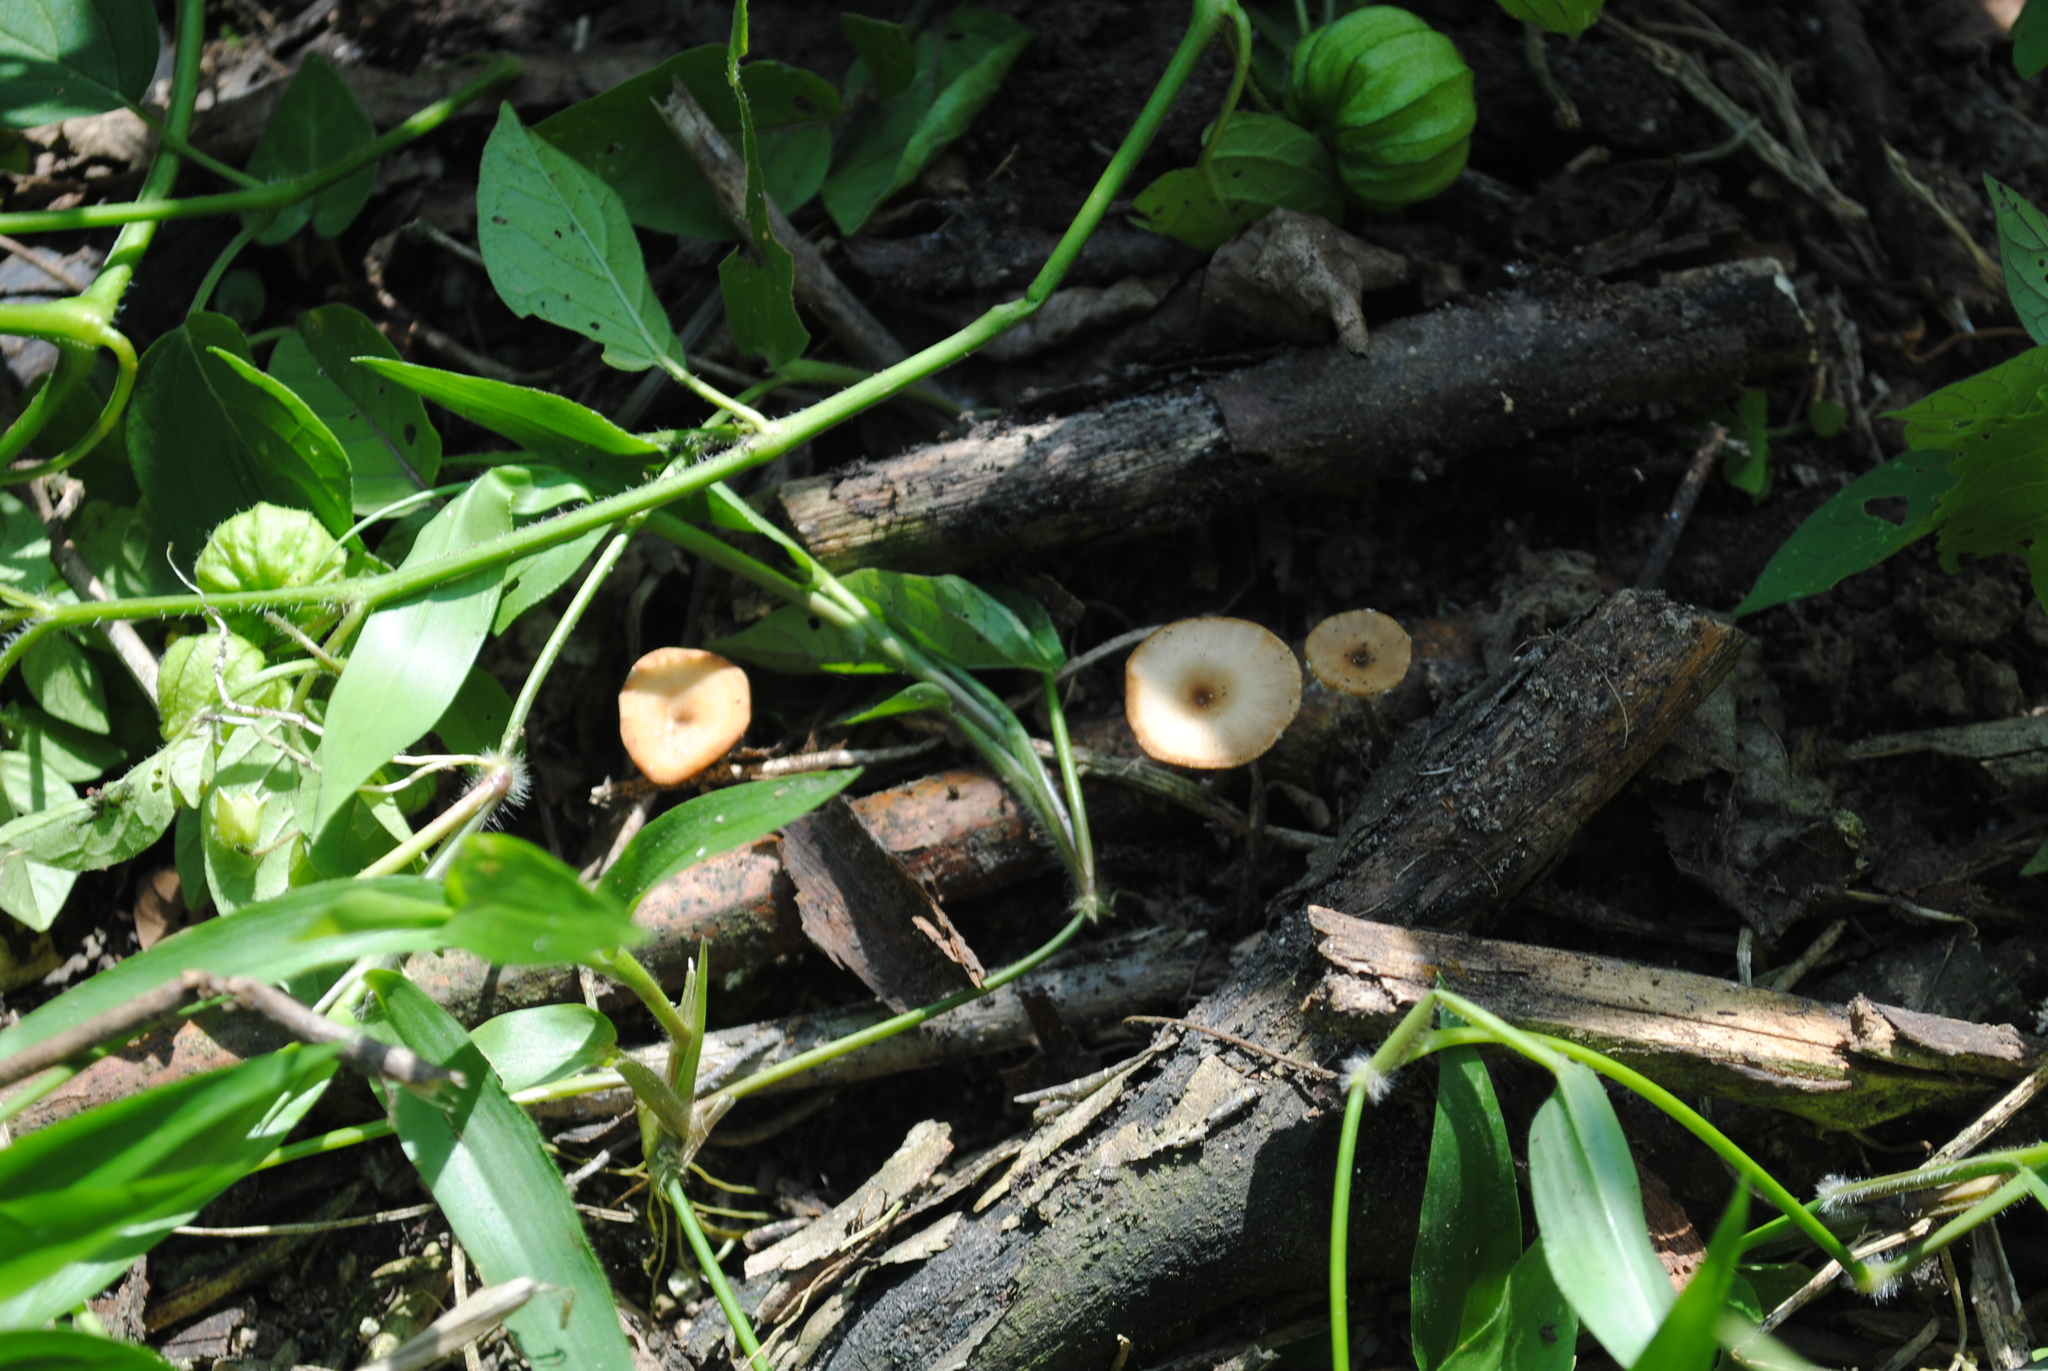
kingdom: Fungi
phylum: Basidiomycota
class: Agaricomycetes
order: Polyporales
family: Polyporaceae
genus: Lentinus
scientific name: Lentinus flexipes
